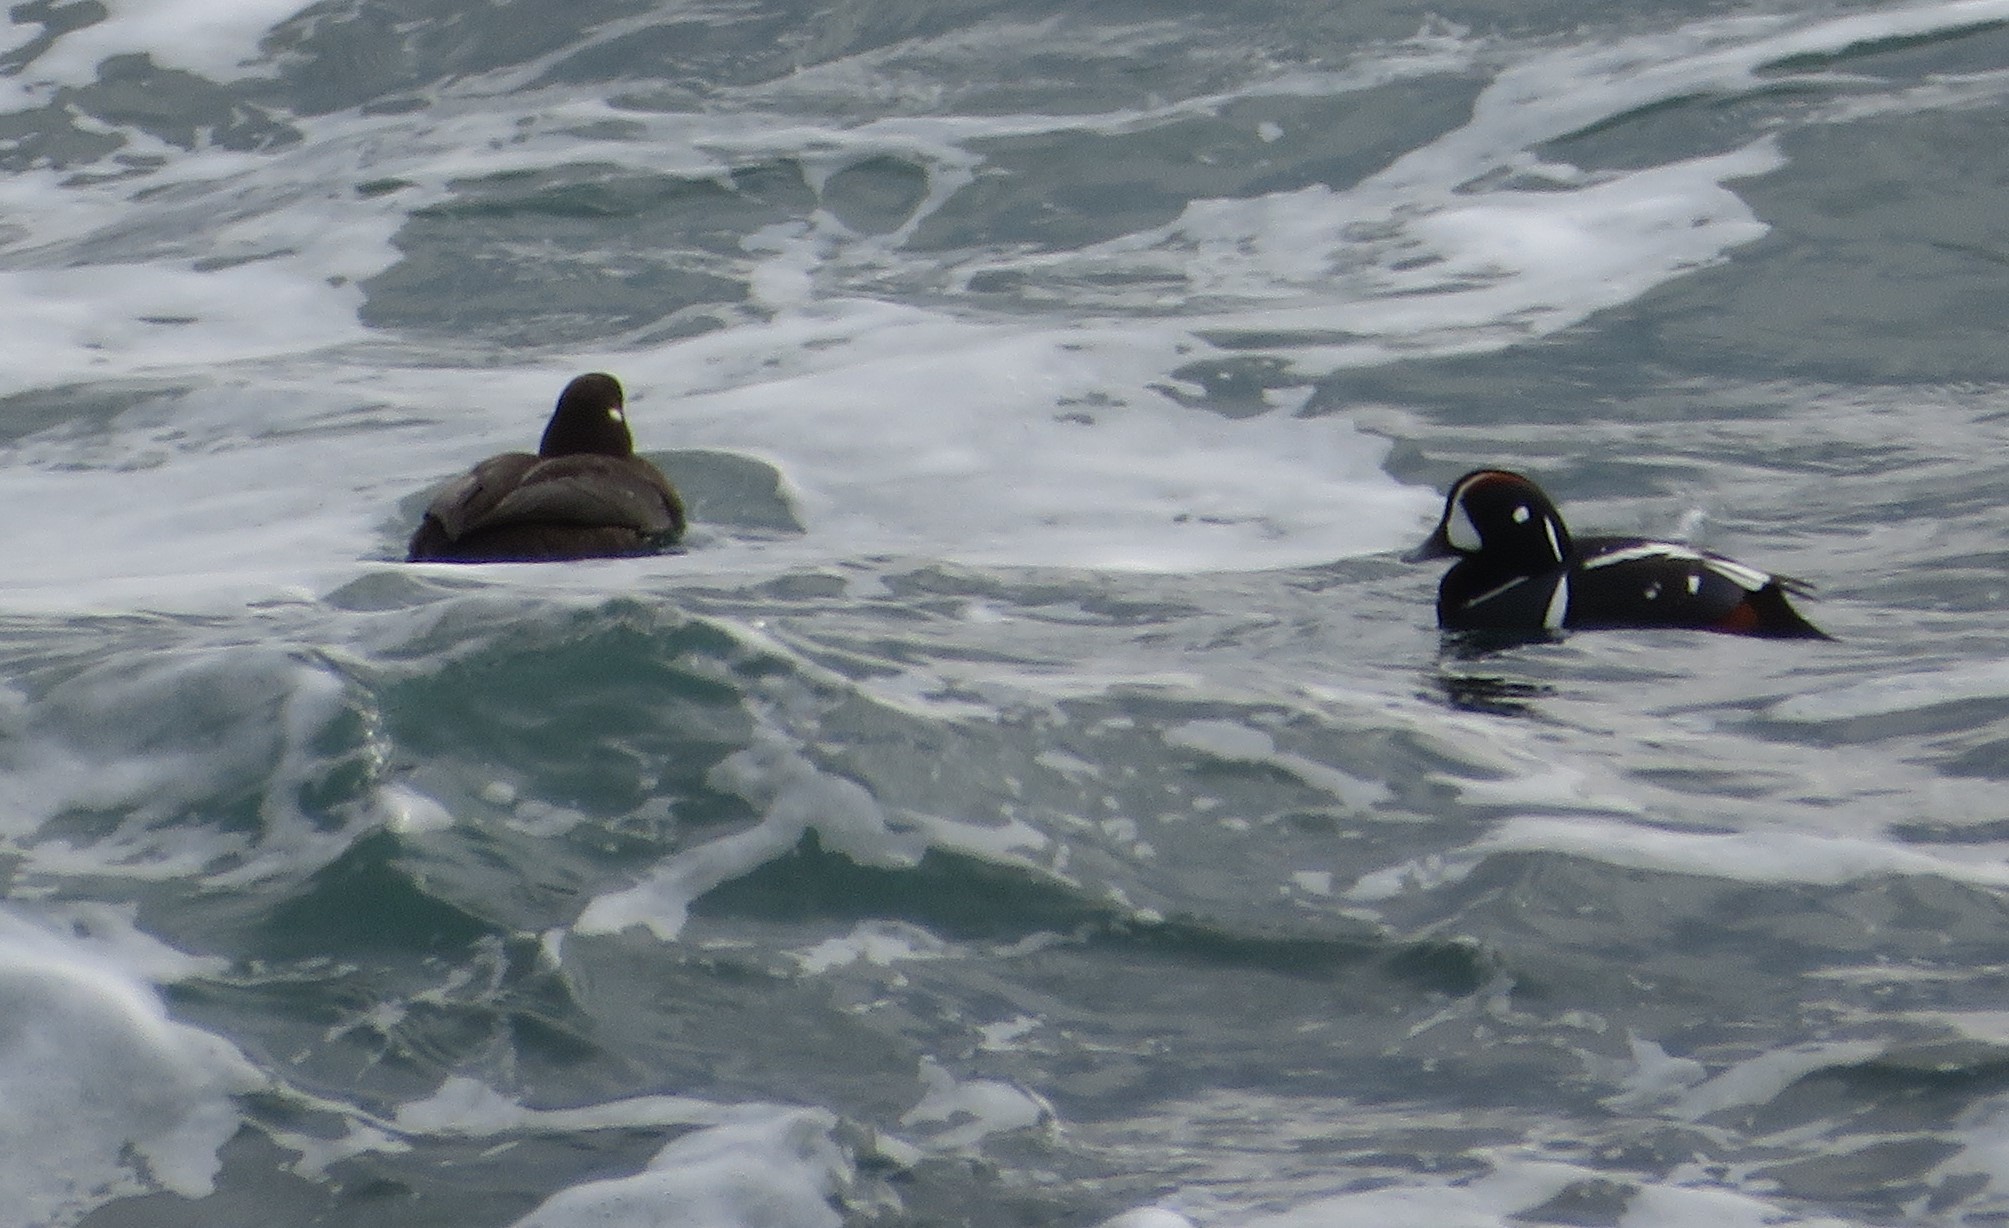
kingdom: Animalia
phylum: Chordata
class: Aves
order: Anseriformes
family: Anatidae
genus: Histrionicus
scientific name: Histrionicus histrionicus
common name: Harlequin duck
